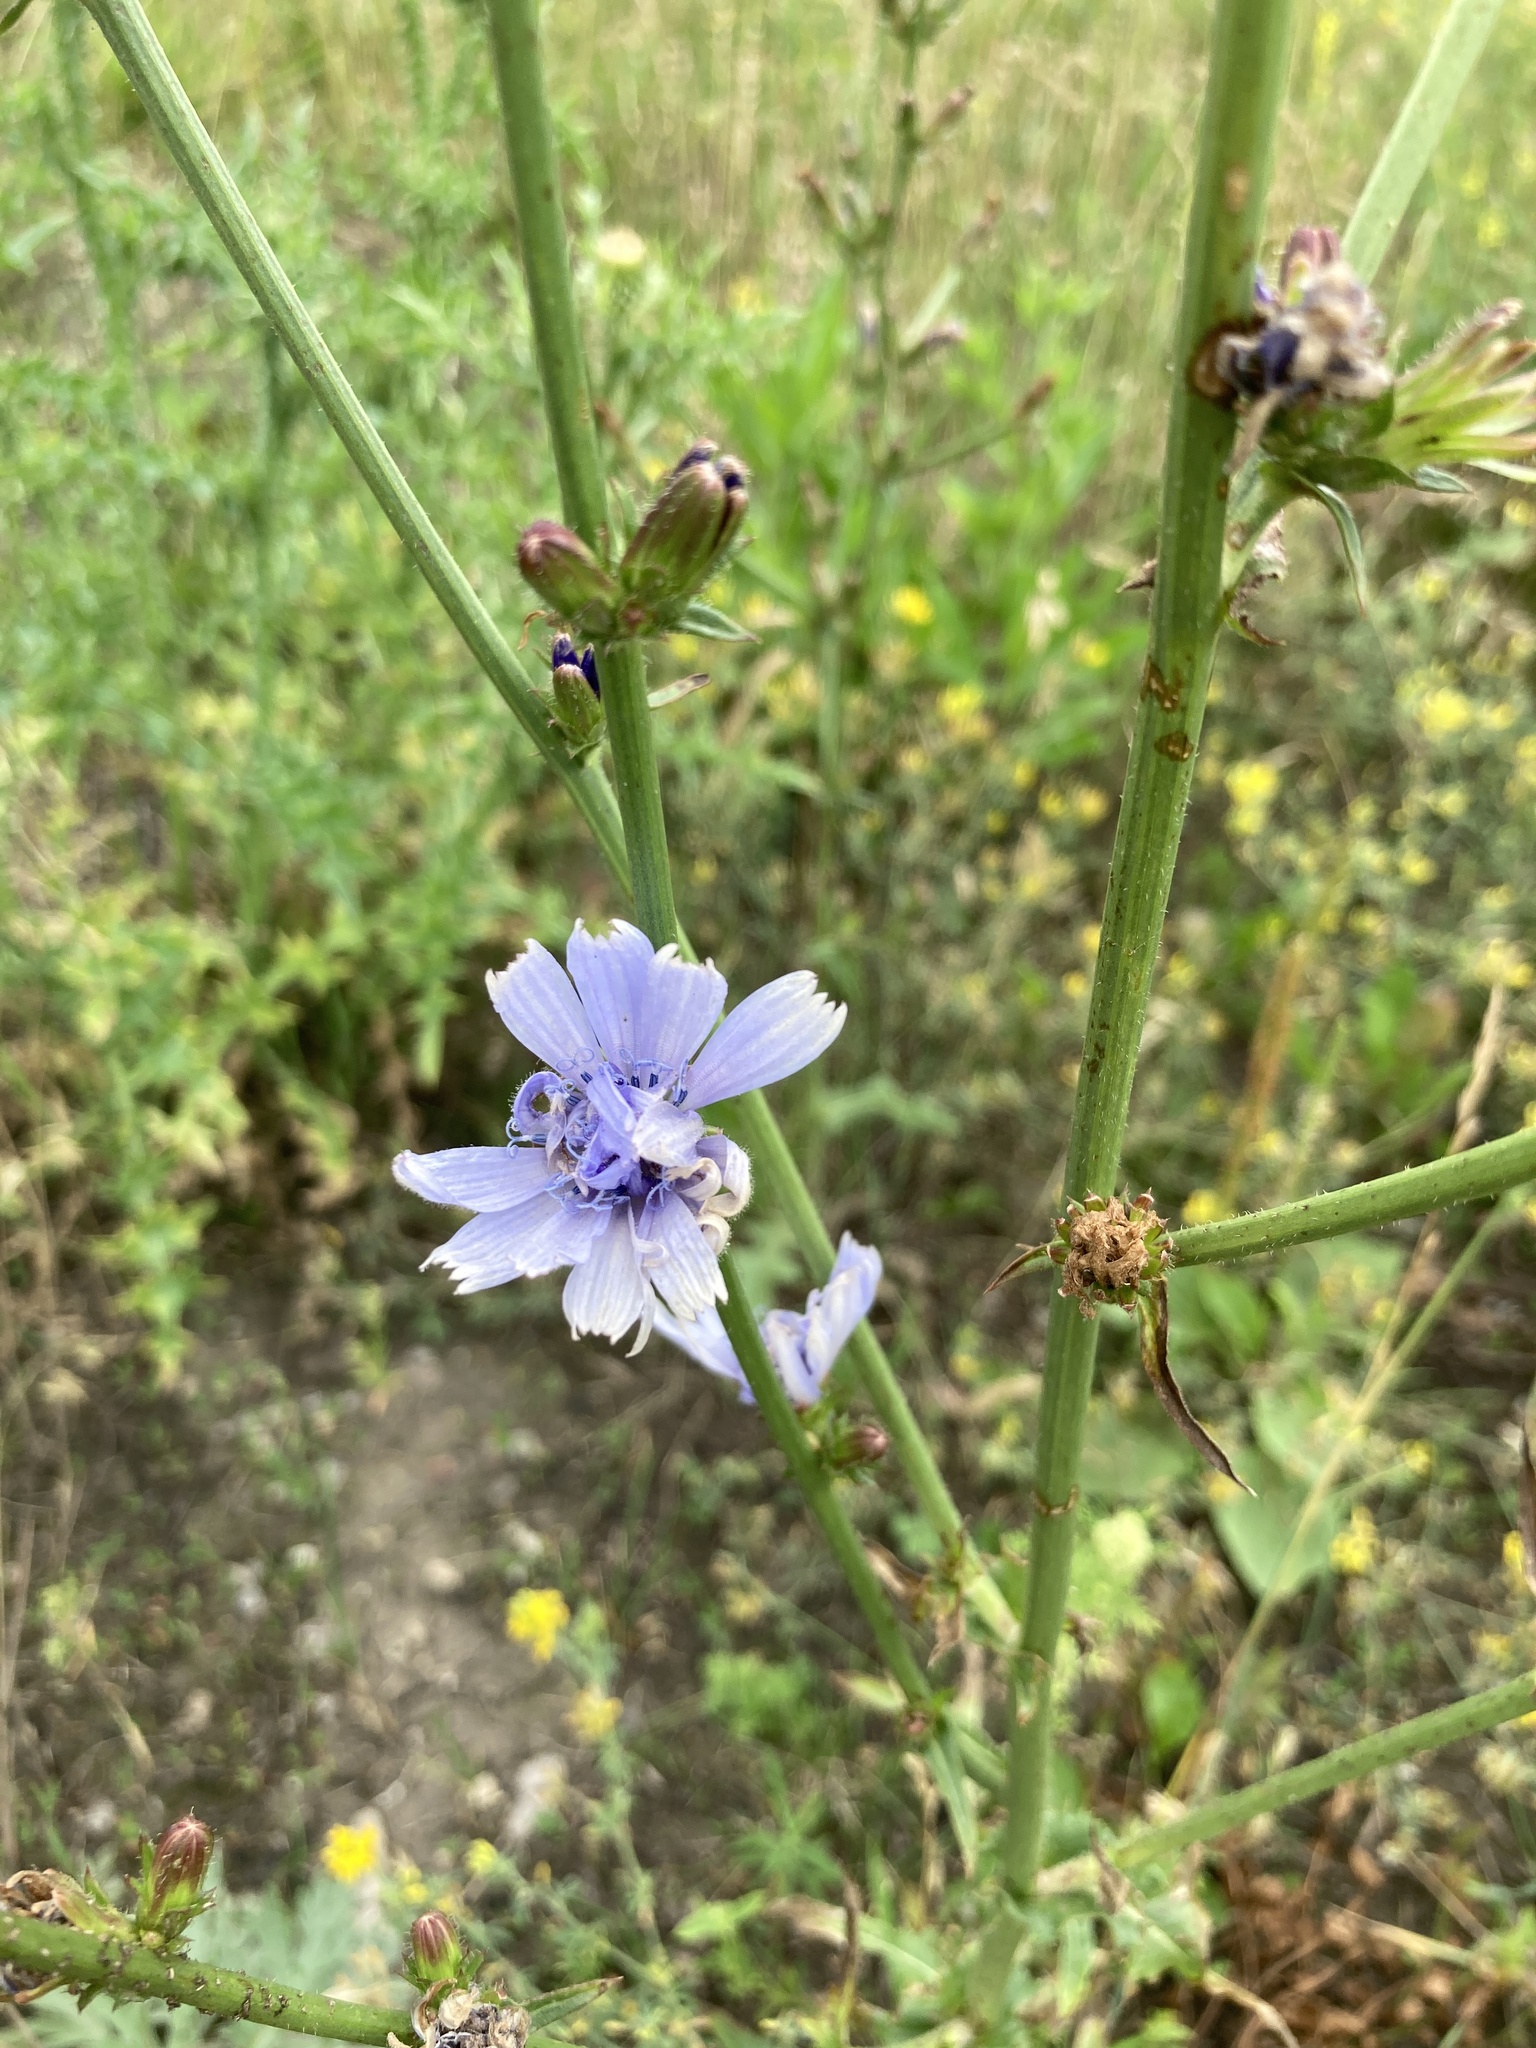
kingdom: Plantae
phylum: Tracheophyta
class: Magnoliopsida
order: Asterales
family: Asteraceae
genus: Cichorium
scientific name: Cichorium intybus
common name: Chicory
